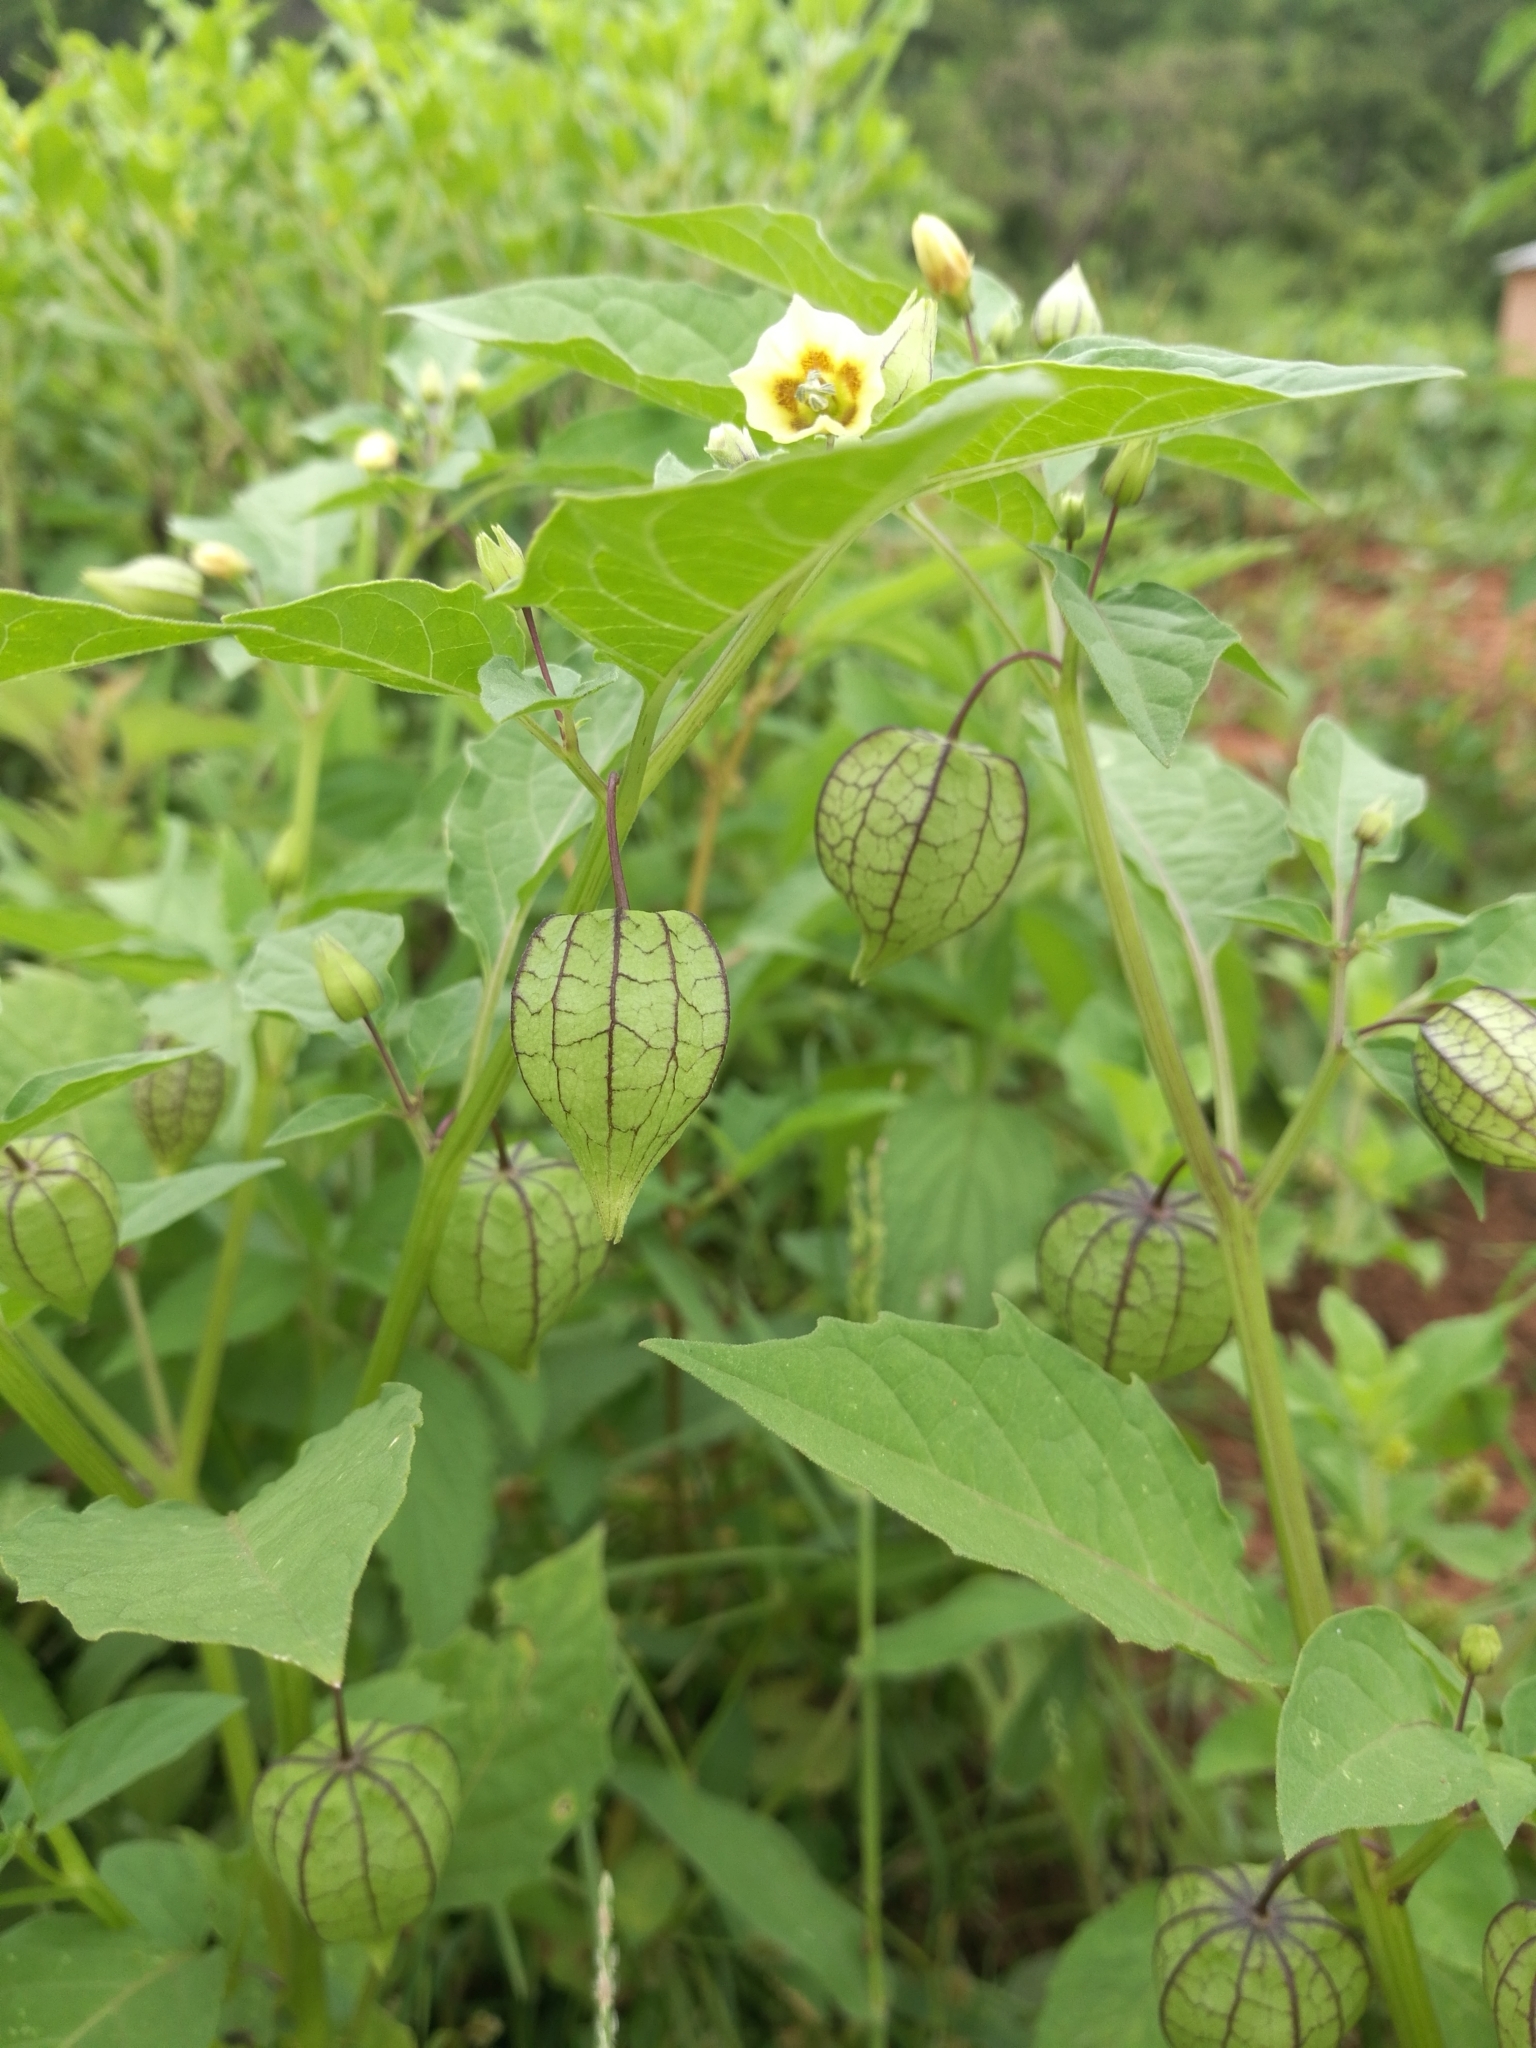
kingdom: Plantae
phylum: Tracheophyta
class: Magnoliopsida
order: Solanales
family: Solanaceae
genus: Physalis
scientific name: Physalis angulata
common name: Angular winter-cherry
